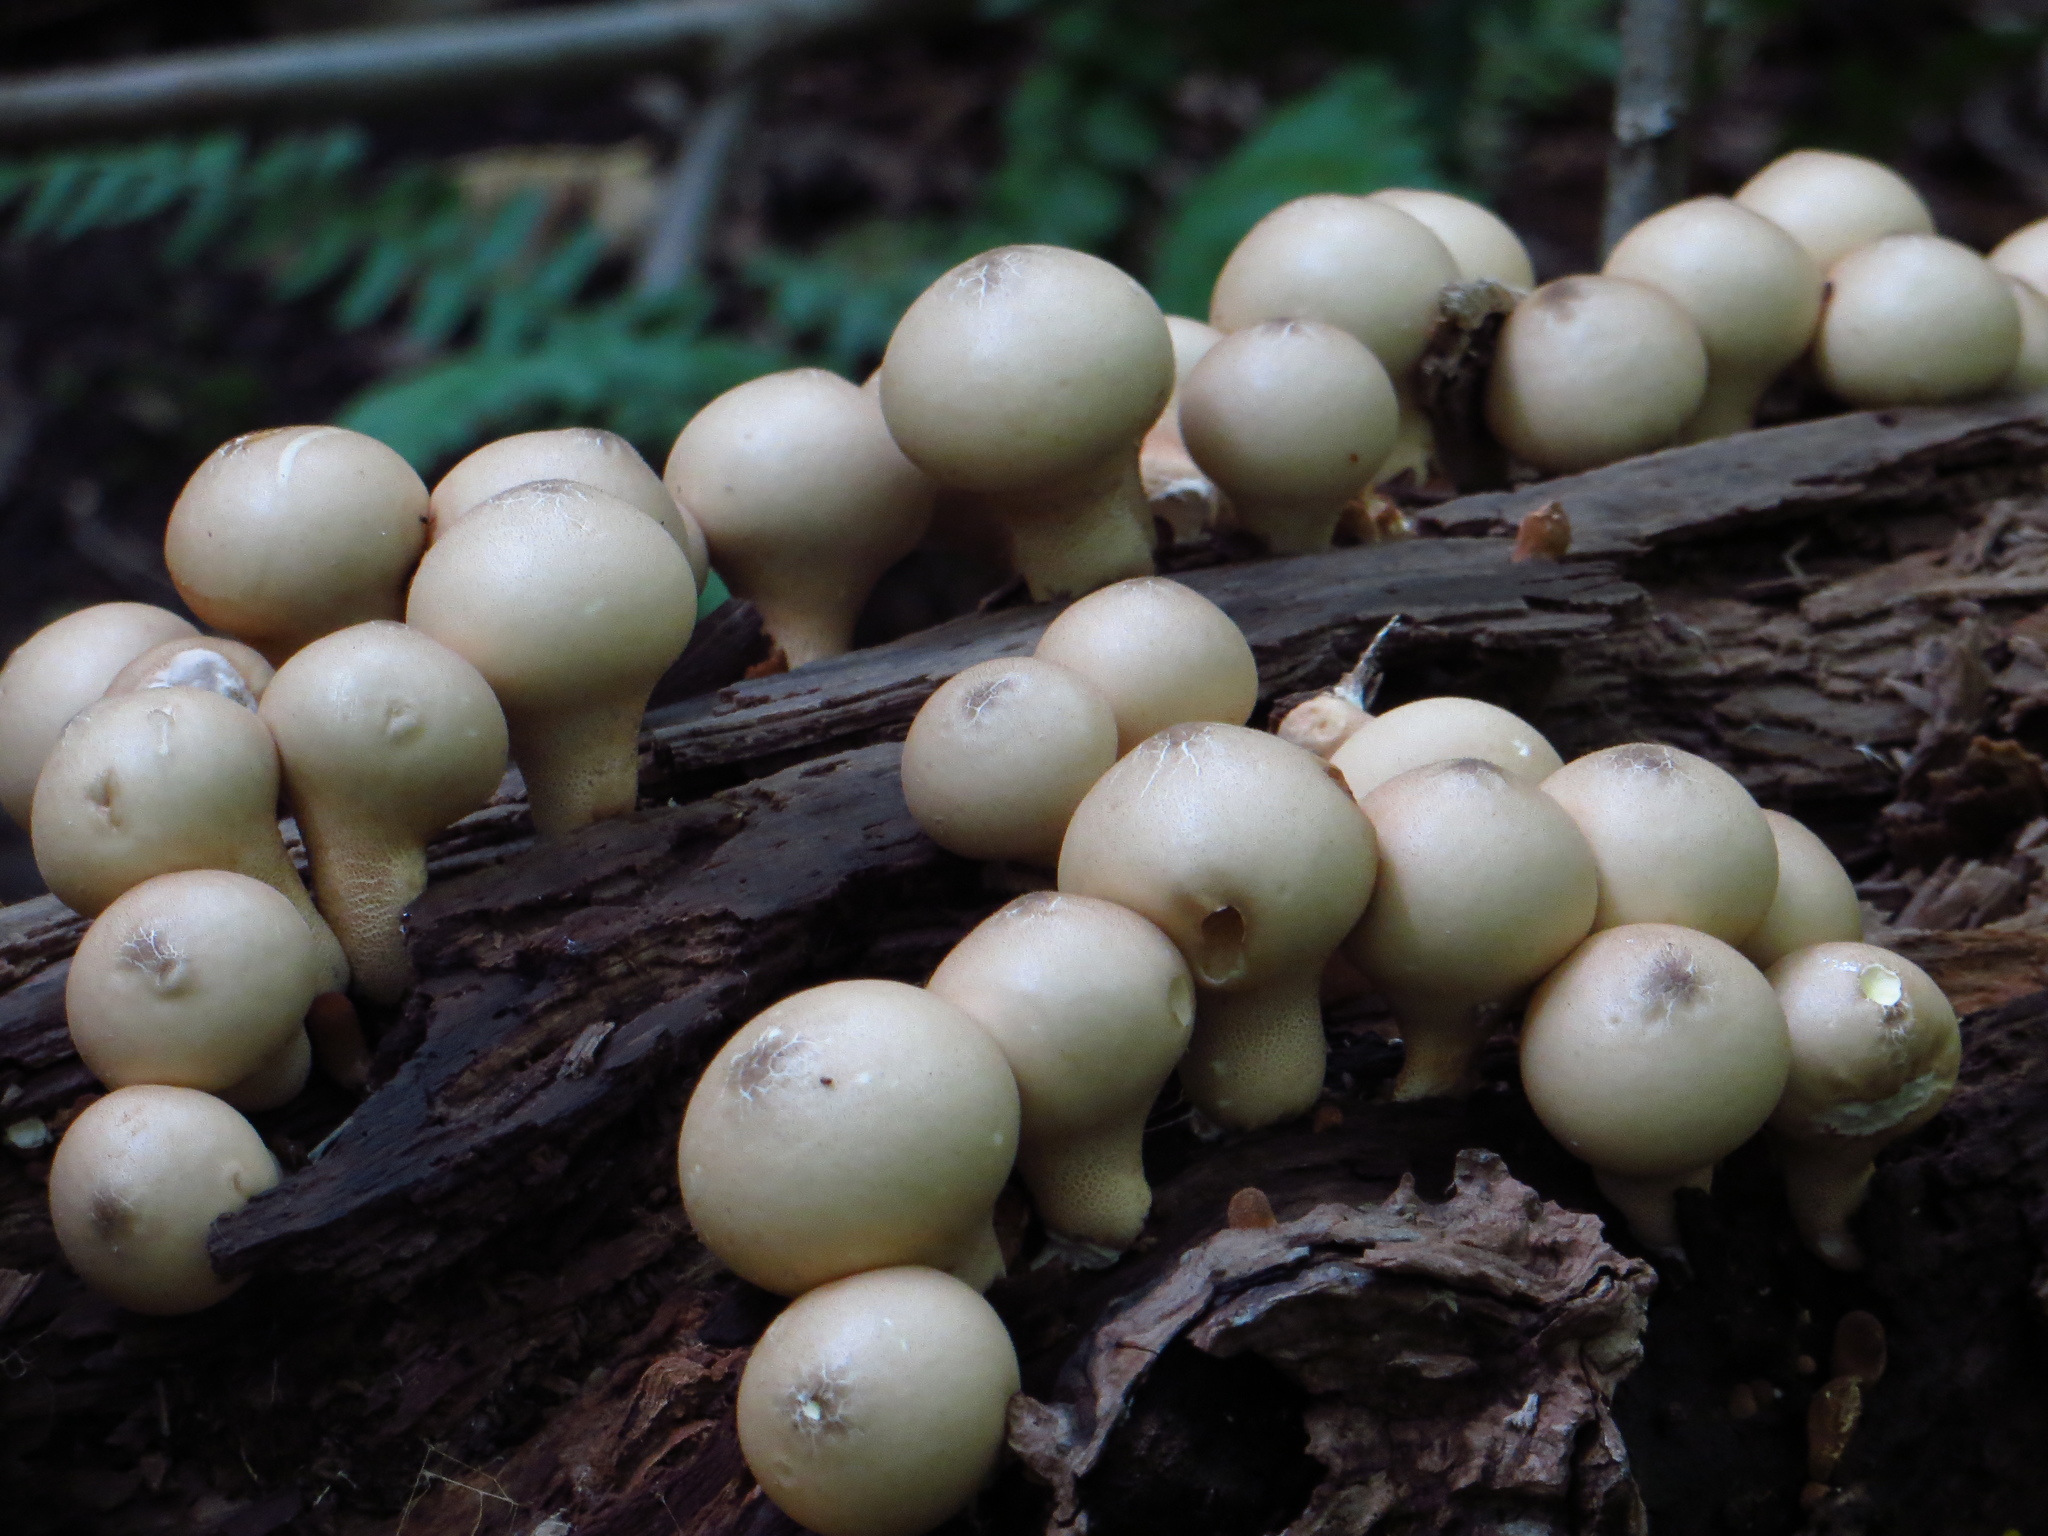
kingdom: Fungi
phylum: Basidiomycota
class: Agaricomycetes
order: Agaricales
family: Lycoperdaceae
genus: Apioperdon
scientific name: Apioperdon pyriforme
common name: Pear-shaped puffball
